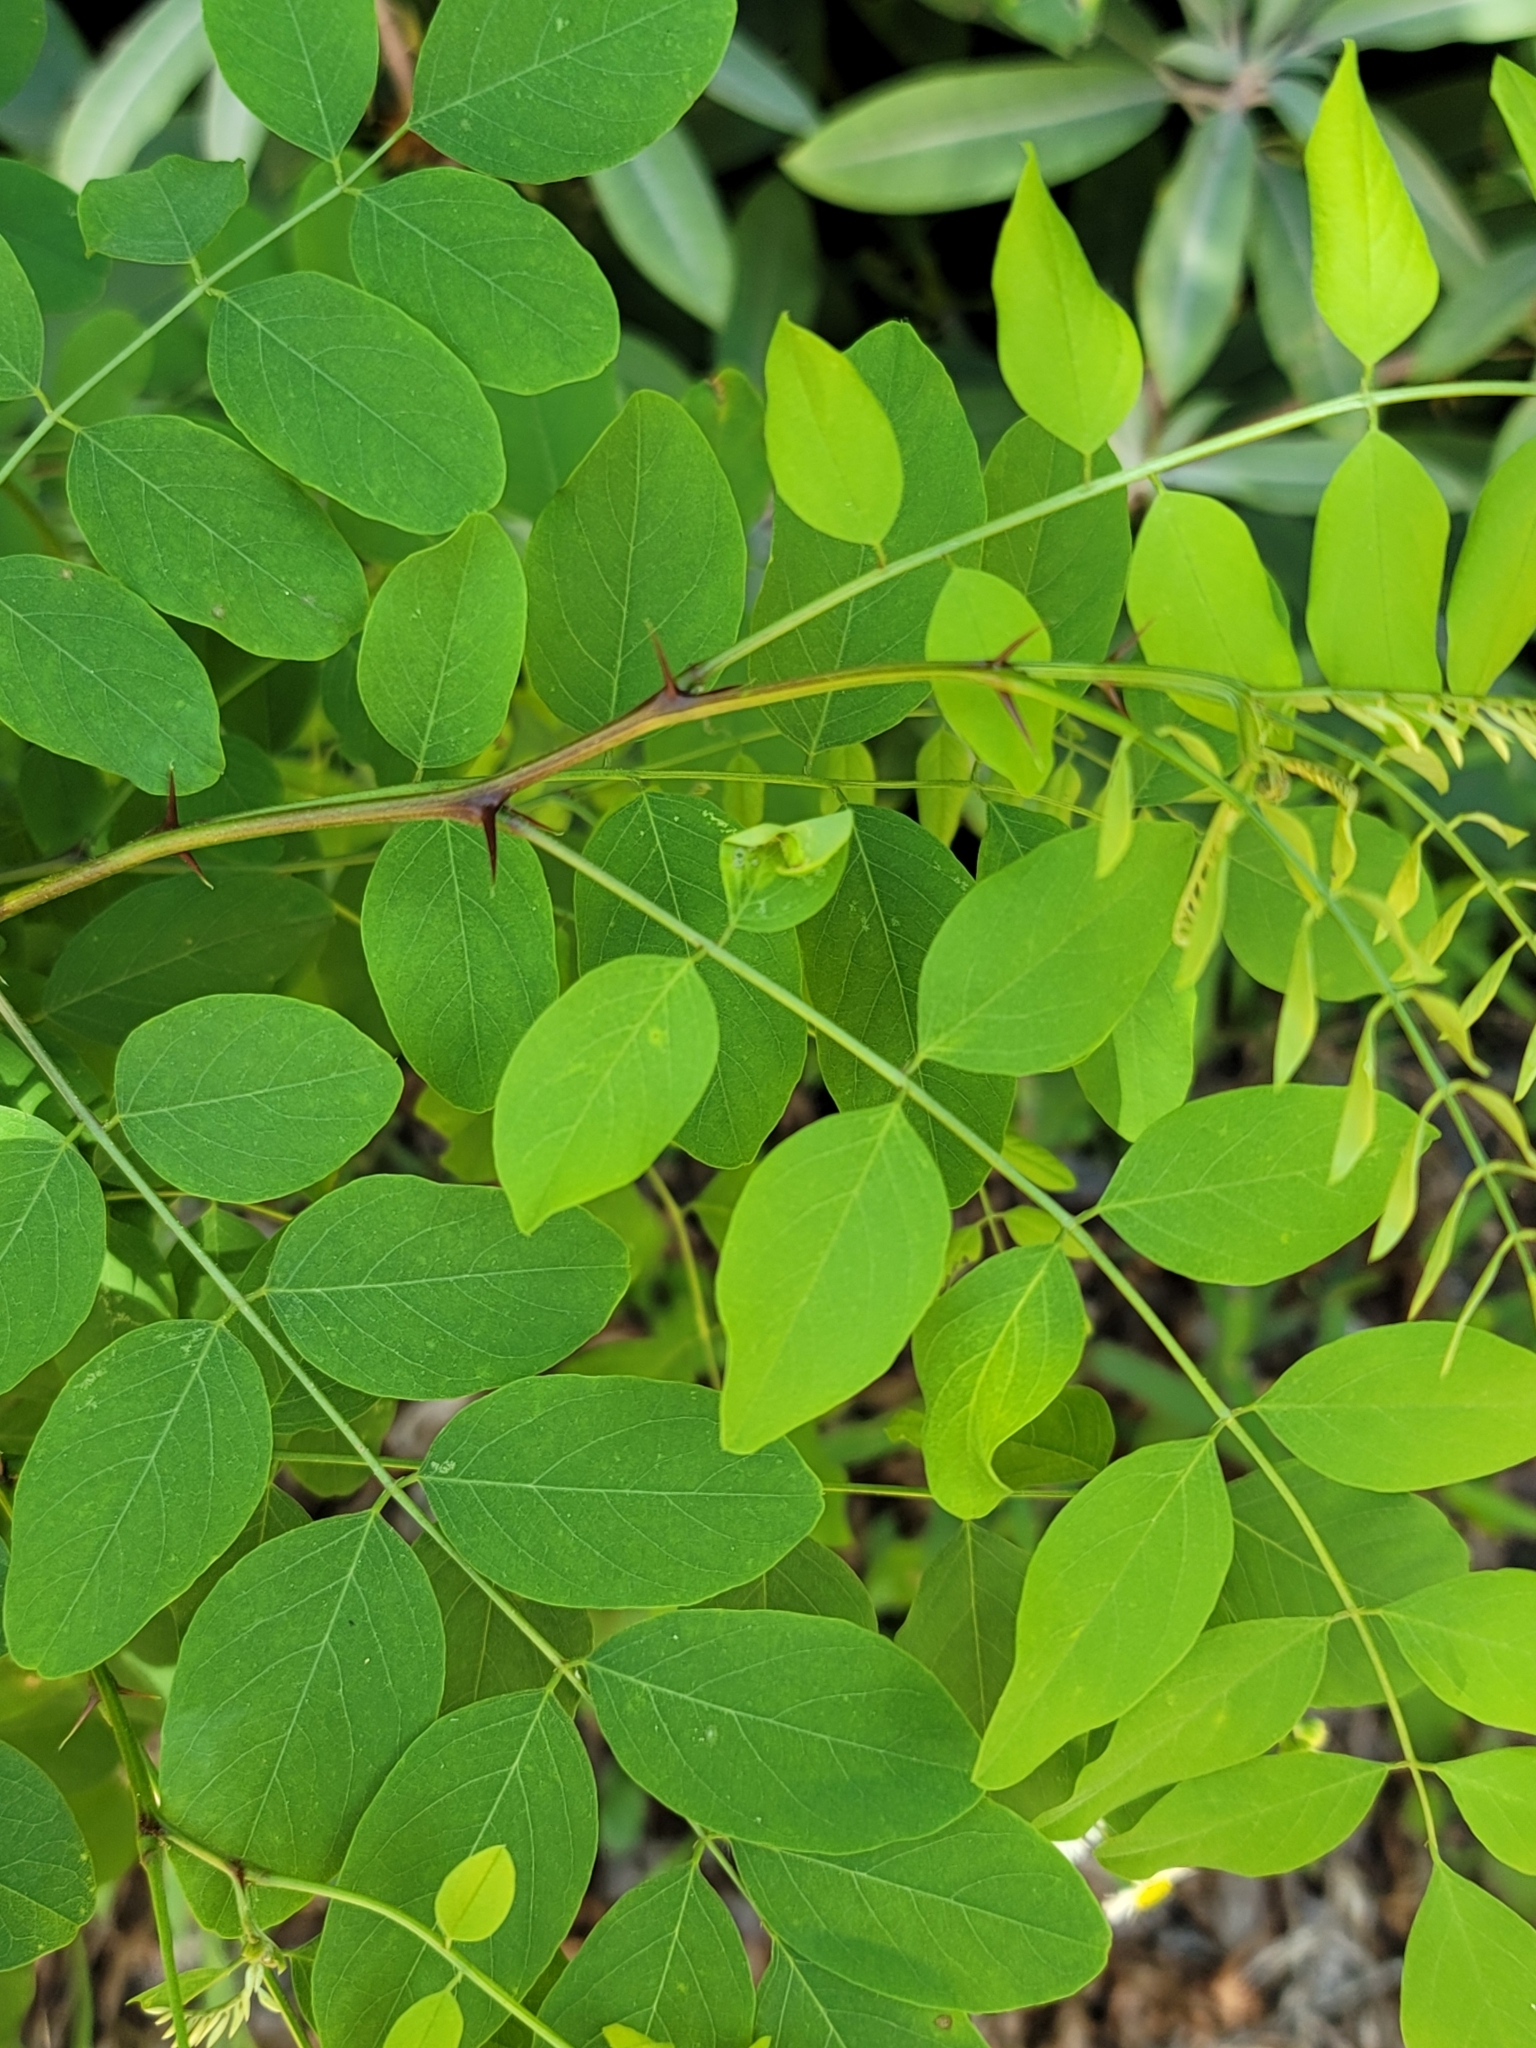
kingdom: Plantae
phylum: Tracheophyta
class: Magnoliopsida
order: Fabales
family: Fabaceae
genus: Robinia
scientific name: Robinia pseudoacacia
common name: Black locust
